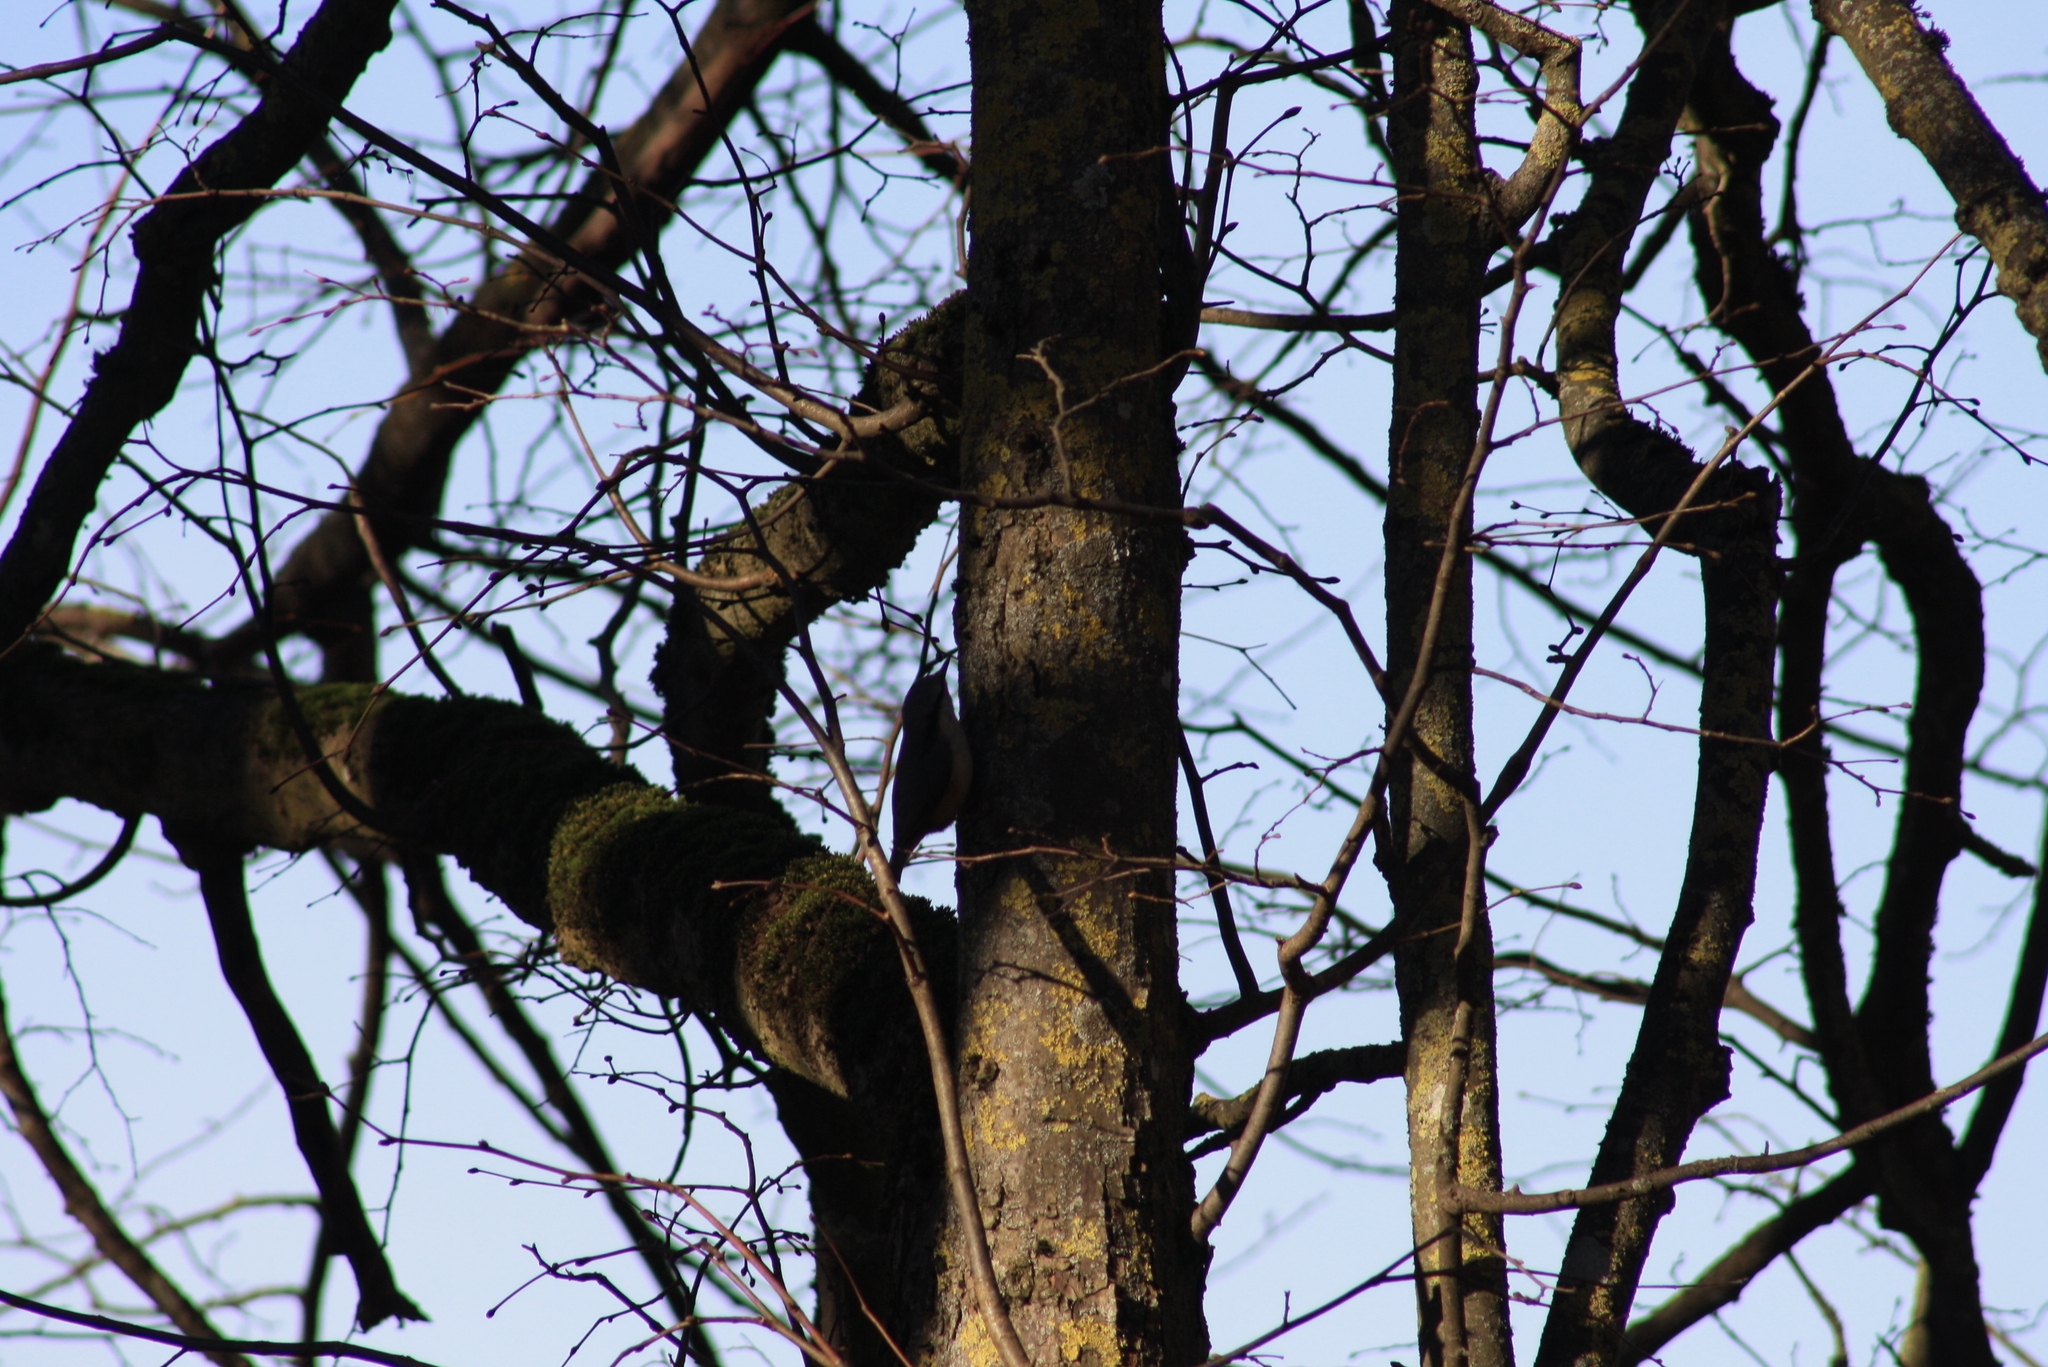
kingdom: Animalia
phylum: Chordata
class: Aves
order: Passeriformes
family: Sittidae
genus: Sitta
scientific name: Sitta europaea
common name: Eurasian nuthatch
